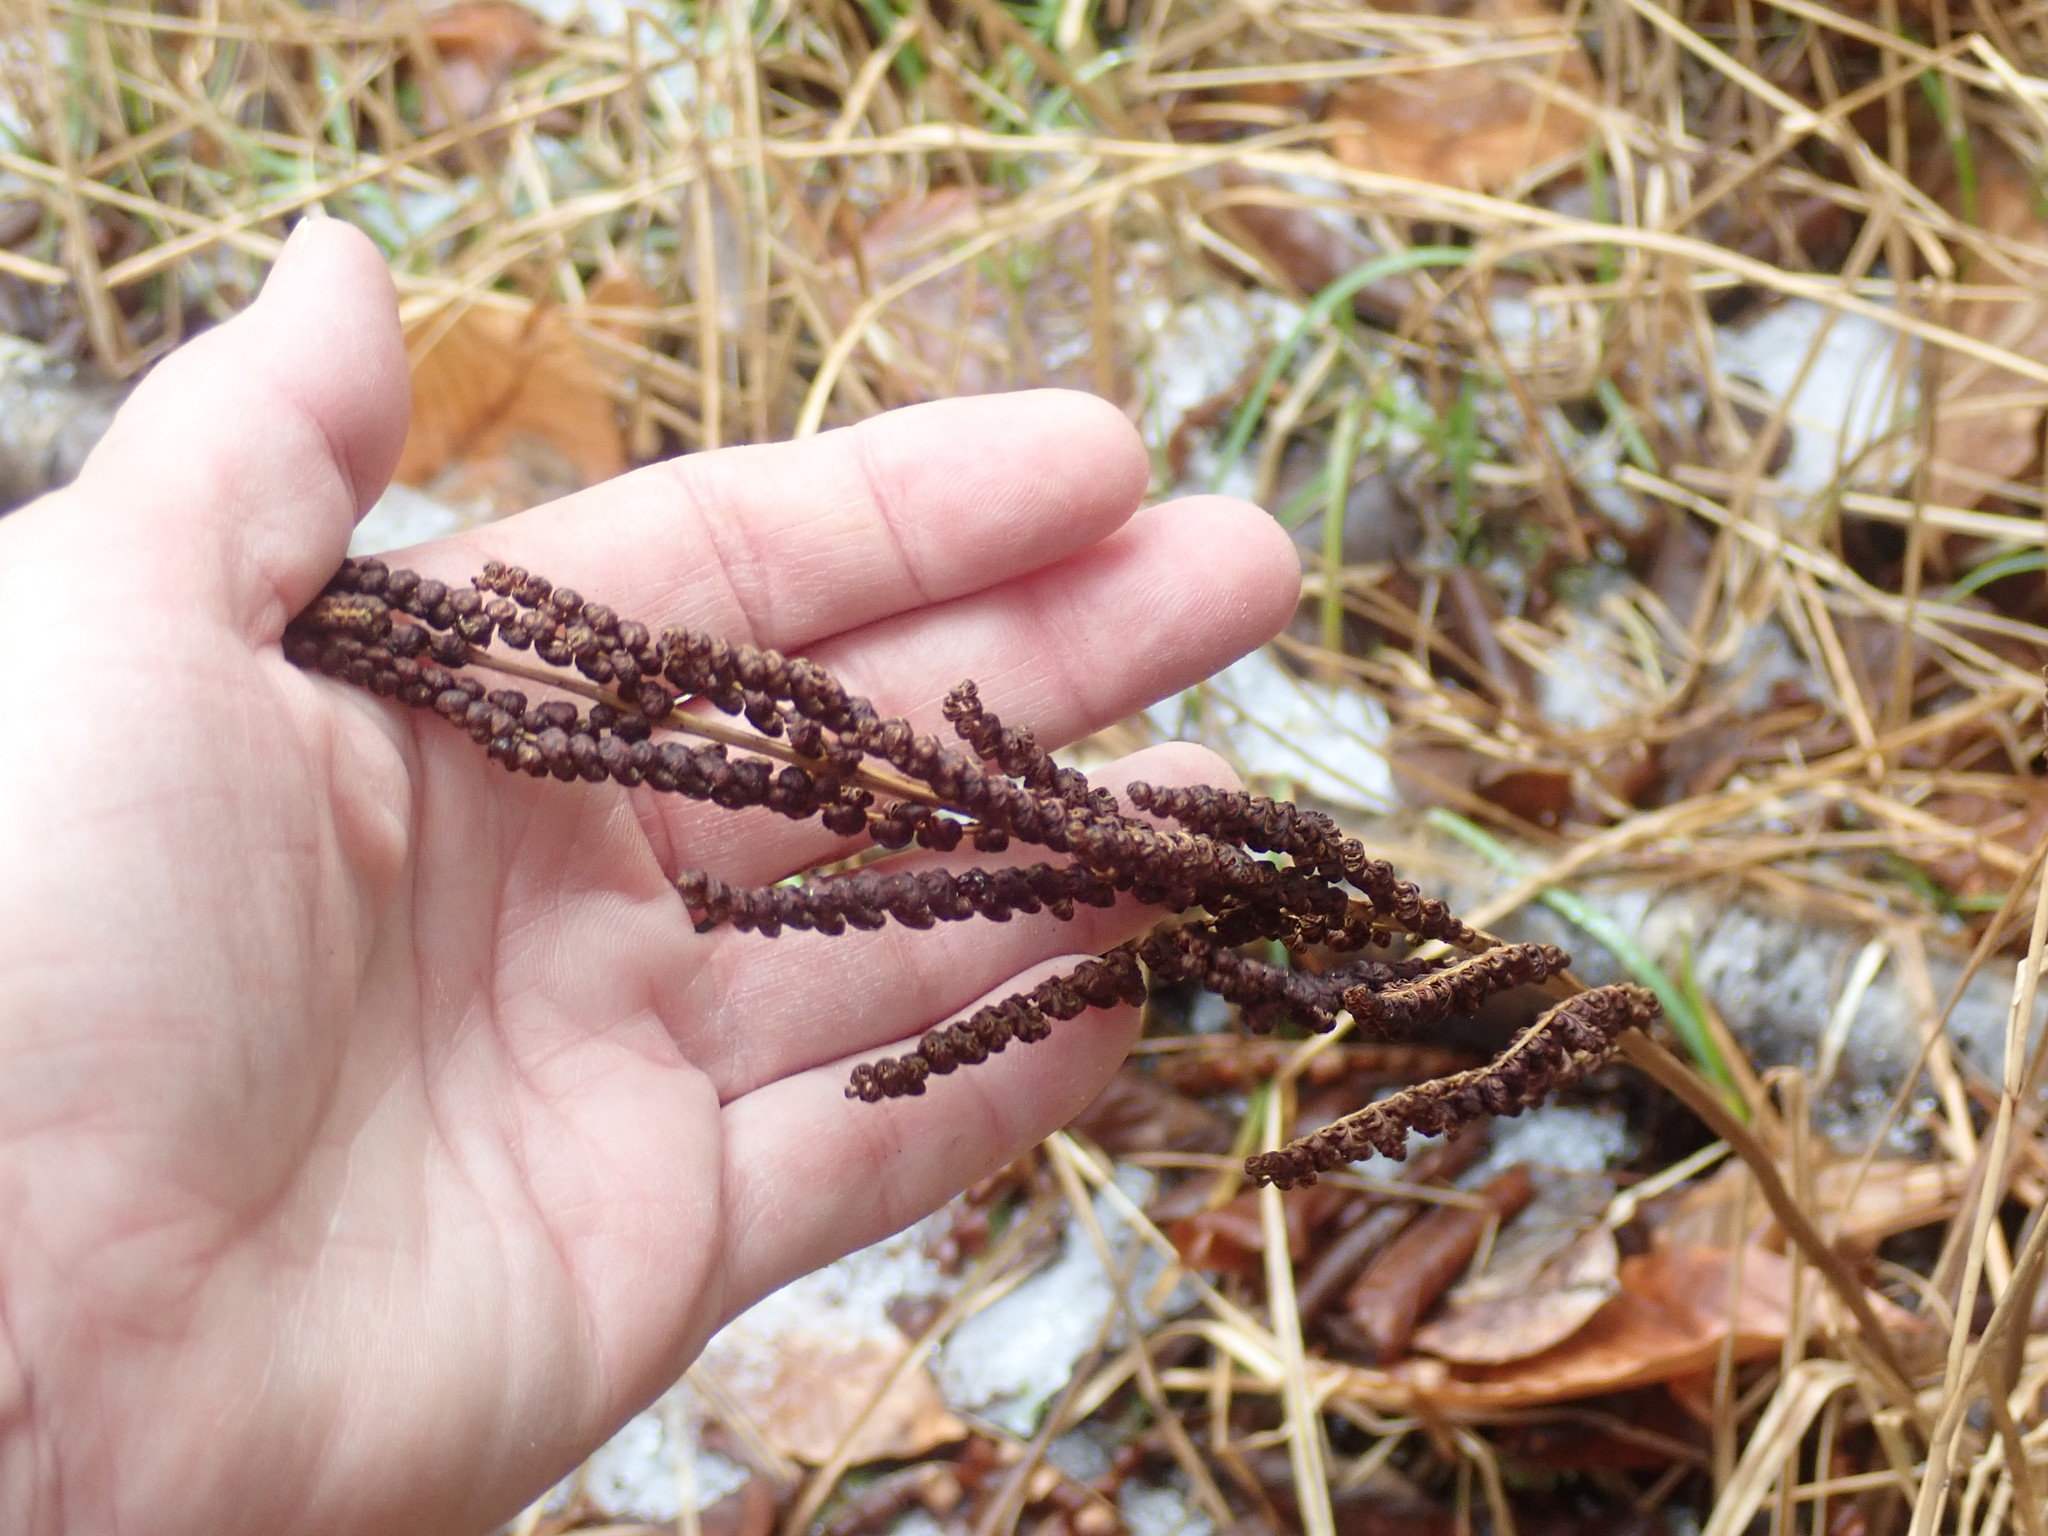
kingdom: Plantae
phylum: Tracheophyta
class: Polypodiopsida
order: Polypodiales
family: Onocleaceae
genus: Onoclea
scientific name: Onoclea sensibilis
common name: Sensitive fern
